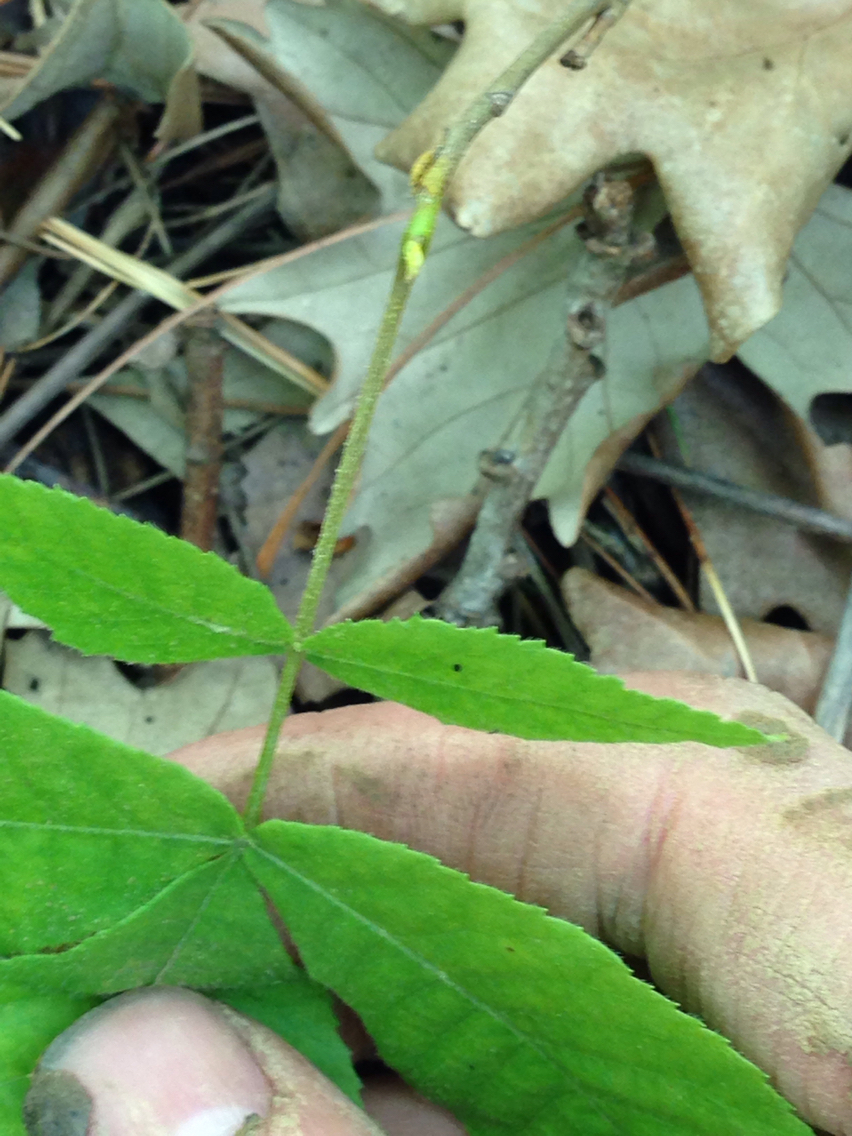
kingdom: Plantae
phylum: Tracheophyta
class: Magnoliopsida
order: Fagales
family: Juglandaceae
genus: Carya
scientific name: Carya cordiformis
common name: Bitternut hickory
